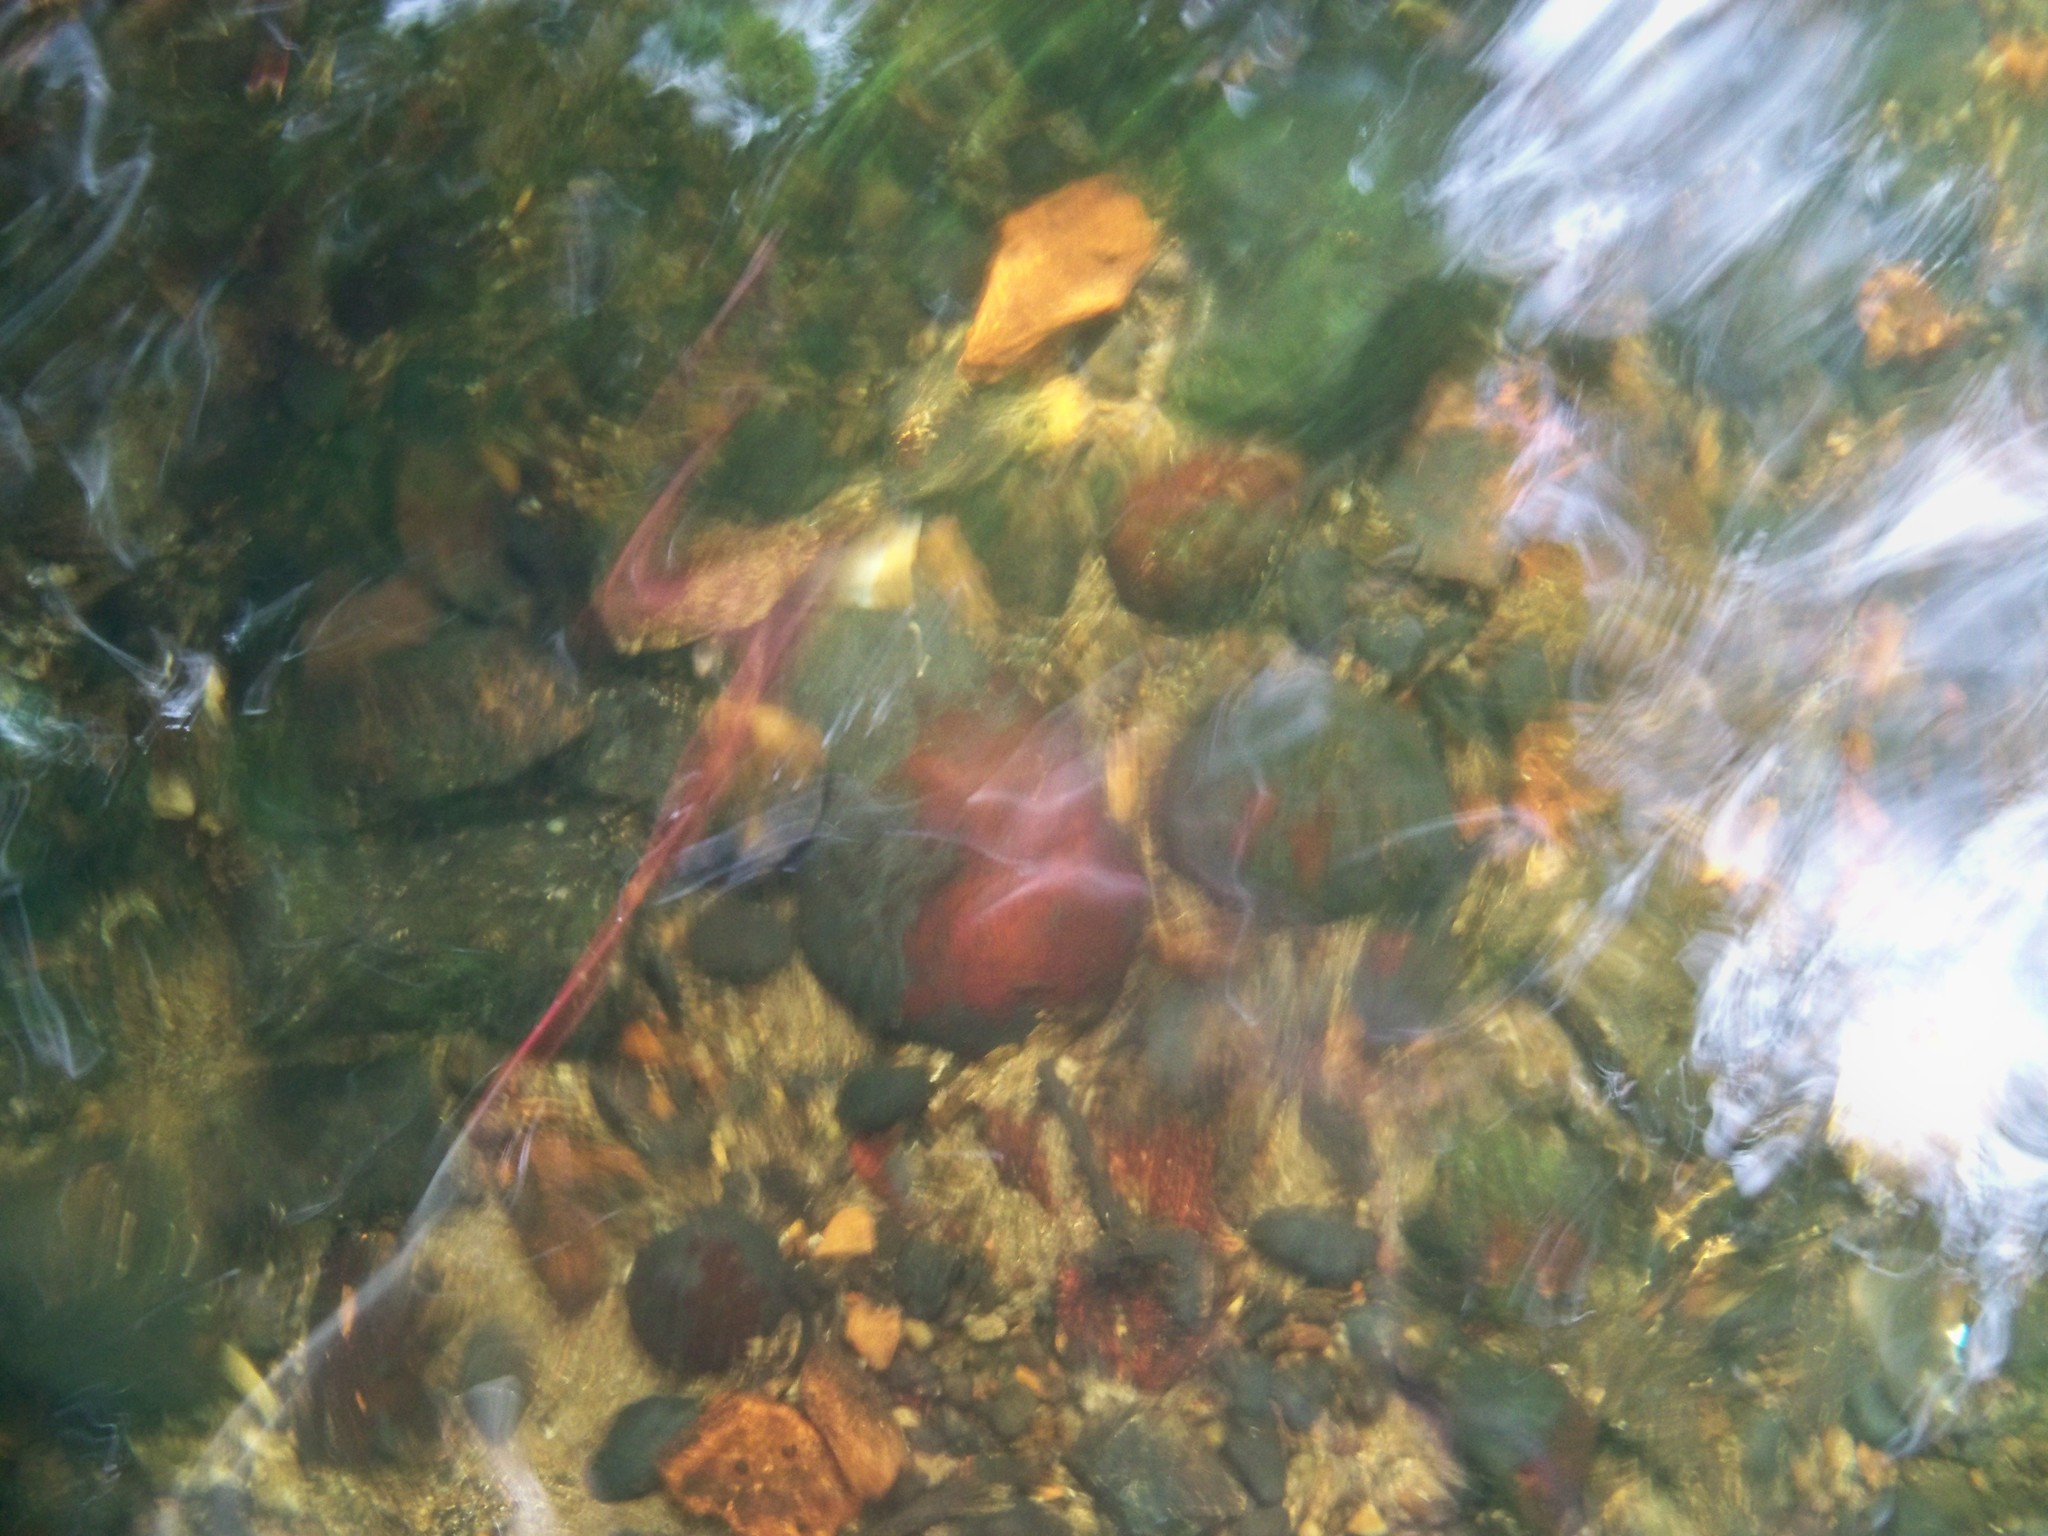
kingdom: Plantae
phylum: Rhodophyta
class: Florideophyceae
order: Hildenbrandiales
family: Hildenbrandiaceae
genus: Hildenbrandia
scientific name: Hildenbrandia rivularis
